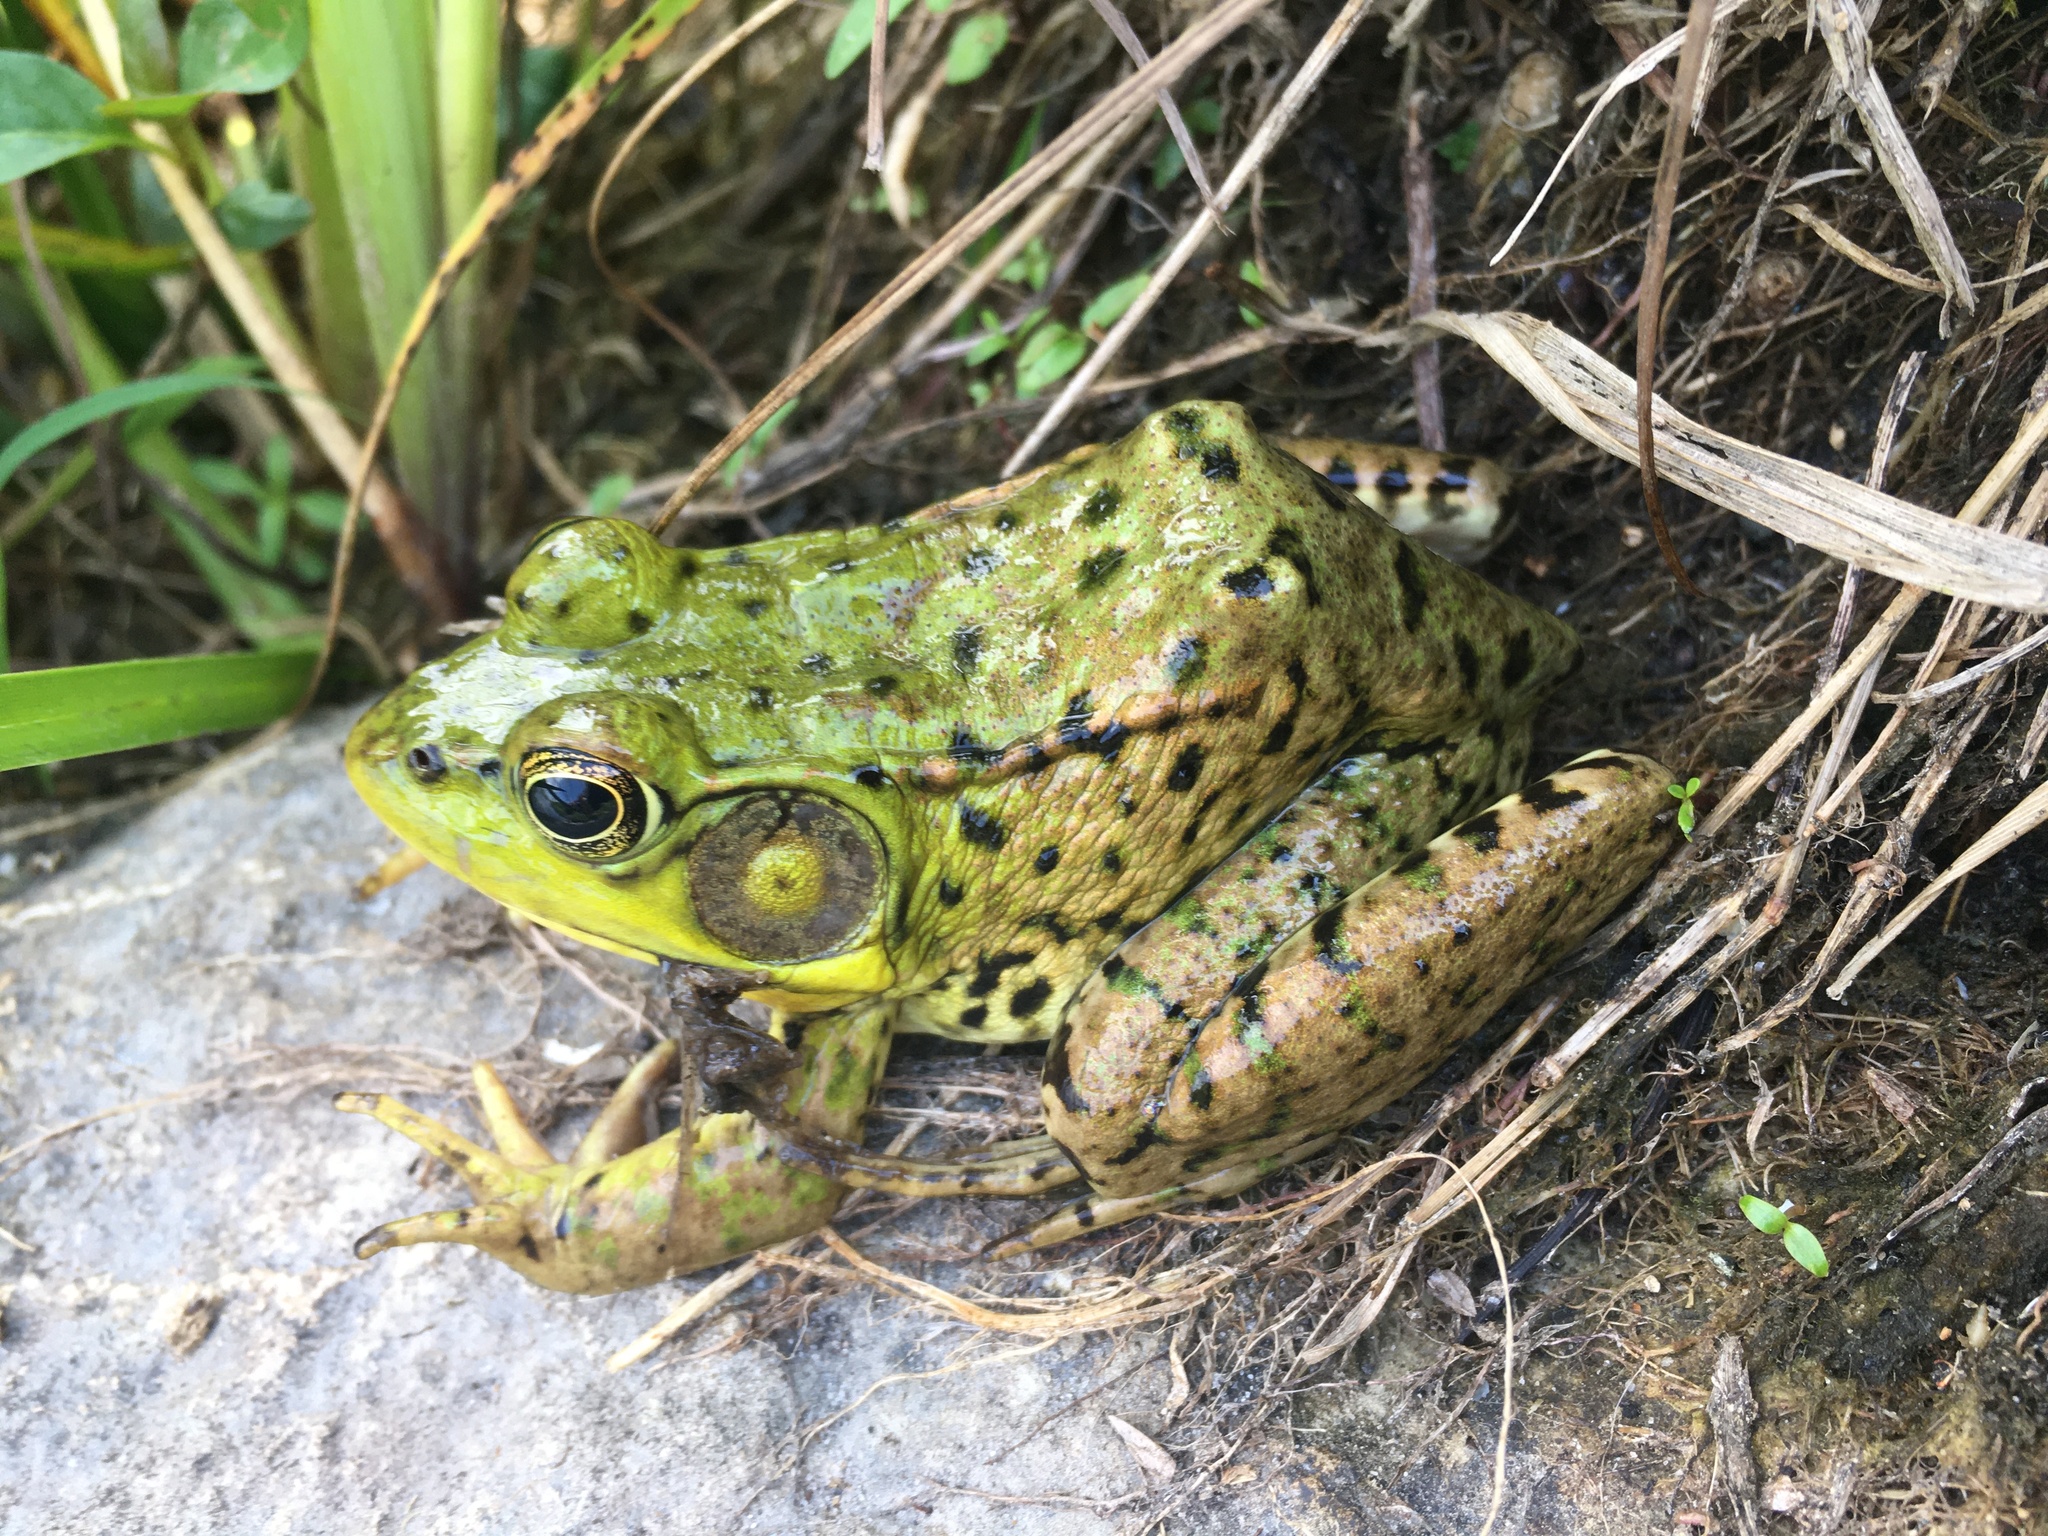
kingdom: Animalia
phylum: Chordata
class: Amphibia
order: Anura
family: Ranidae
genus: Lithobates
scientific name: Lithobates clamitans
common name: Green frog
